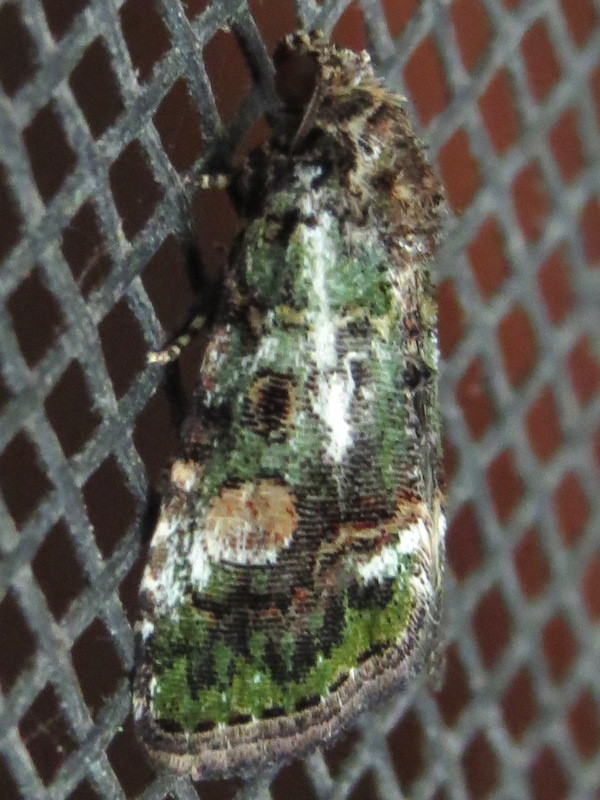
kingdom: Animalia
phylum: Arthropoda
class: Insecta
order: Lepidoptera
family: Noctuidae
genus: Lithacodia
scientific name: Lithacodia musta
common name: Small mossy glyph
